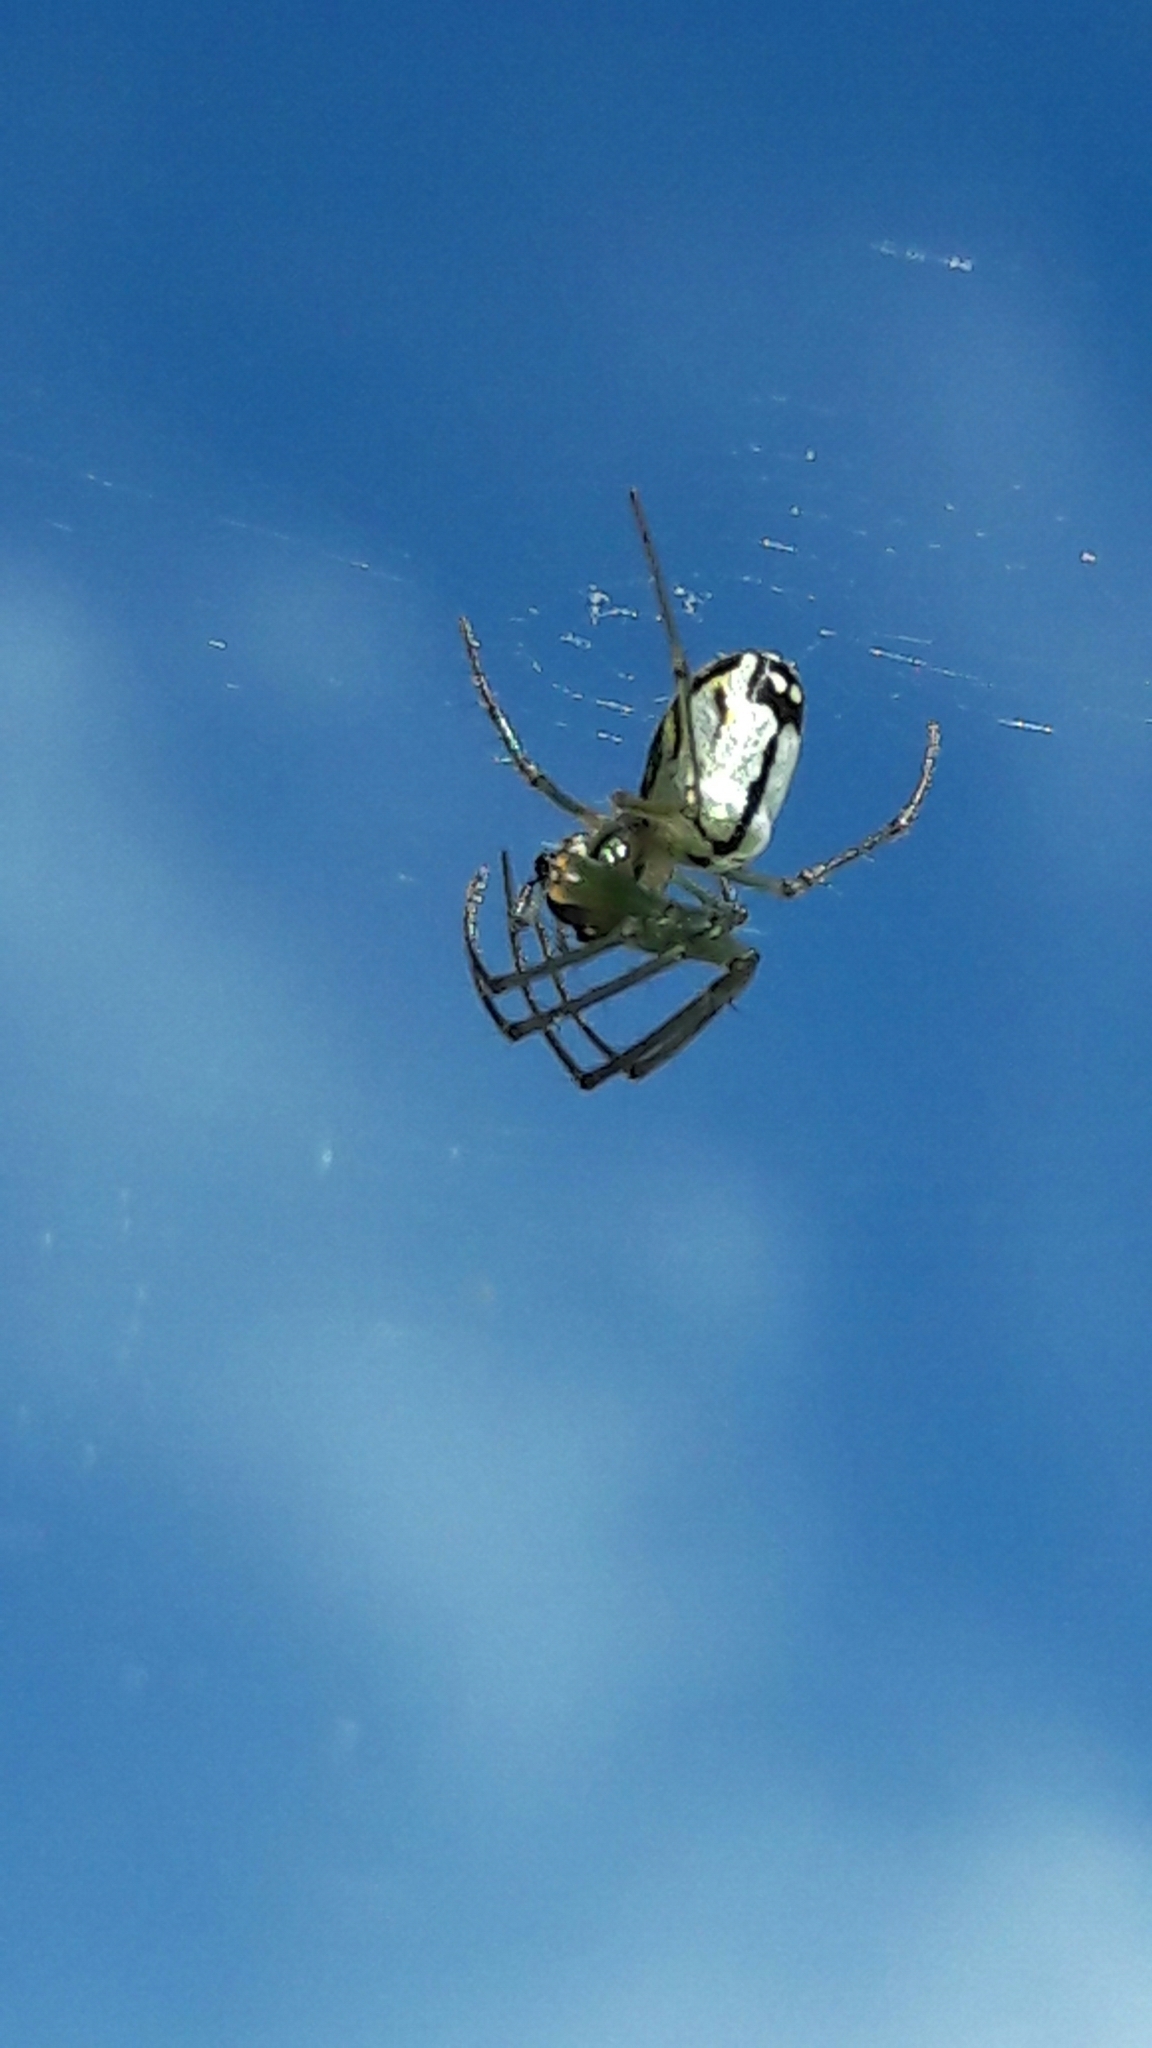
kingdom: Animalia
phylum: Arthropoda
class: Arachnida
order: Araneae
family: Tetragnathidae
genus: Leucauge
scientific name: Leucauge volupis
